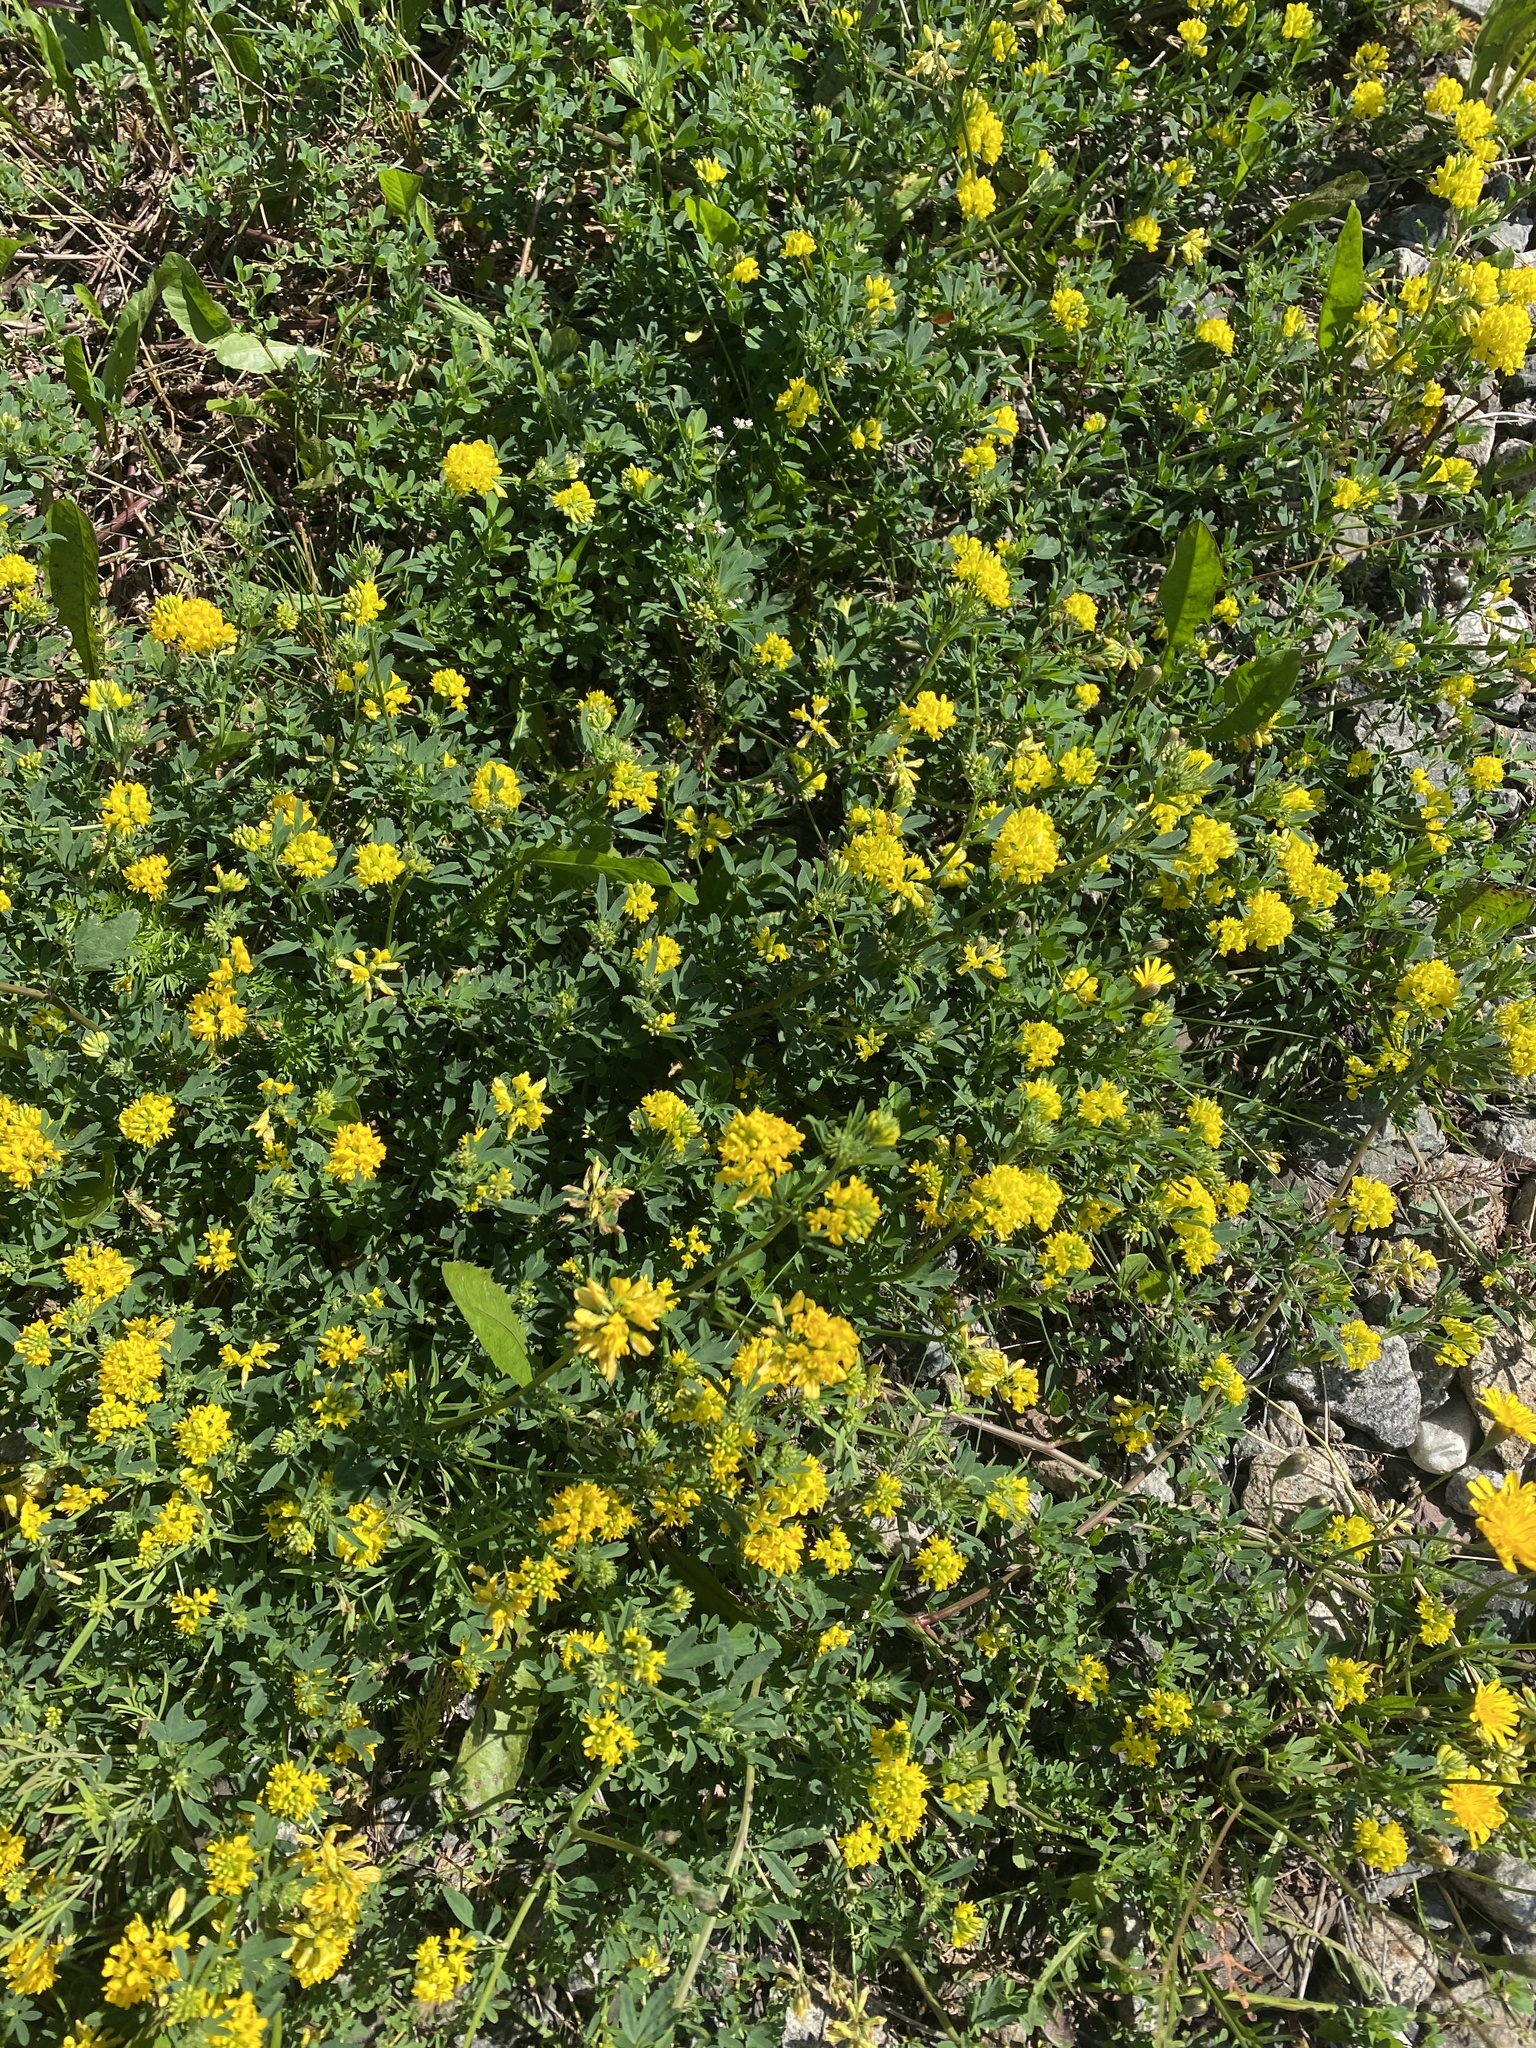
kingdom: Plantae
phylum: Tracheophyta
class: Magnoliopsida
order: Fabales
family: Fabaceae
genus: Medicago
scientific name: Medicago falcata
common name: Sickle medick
